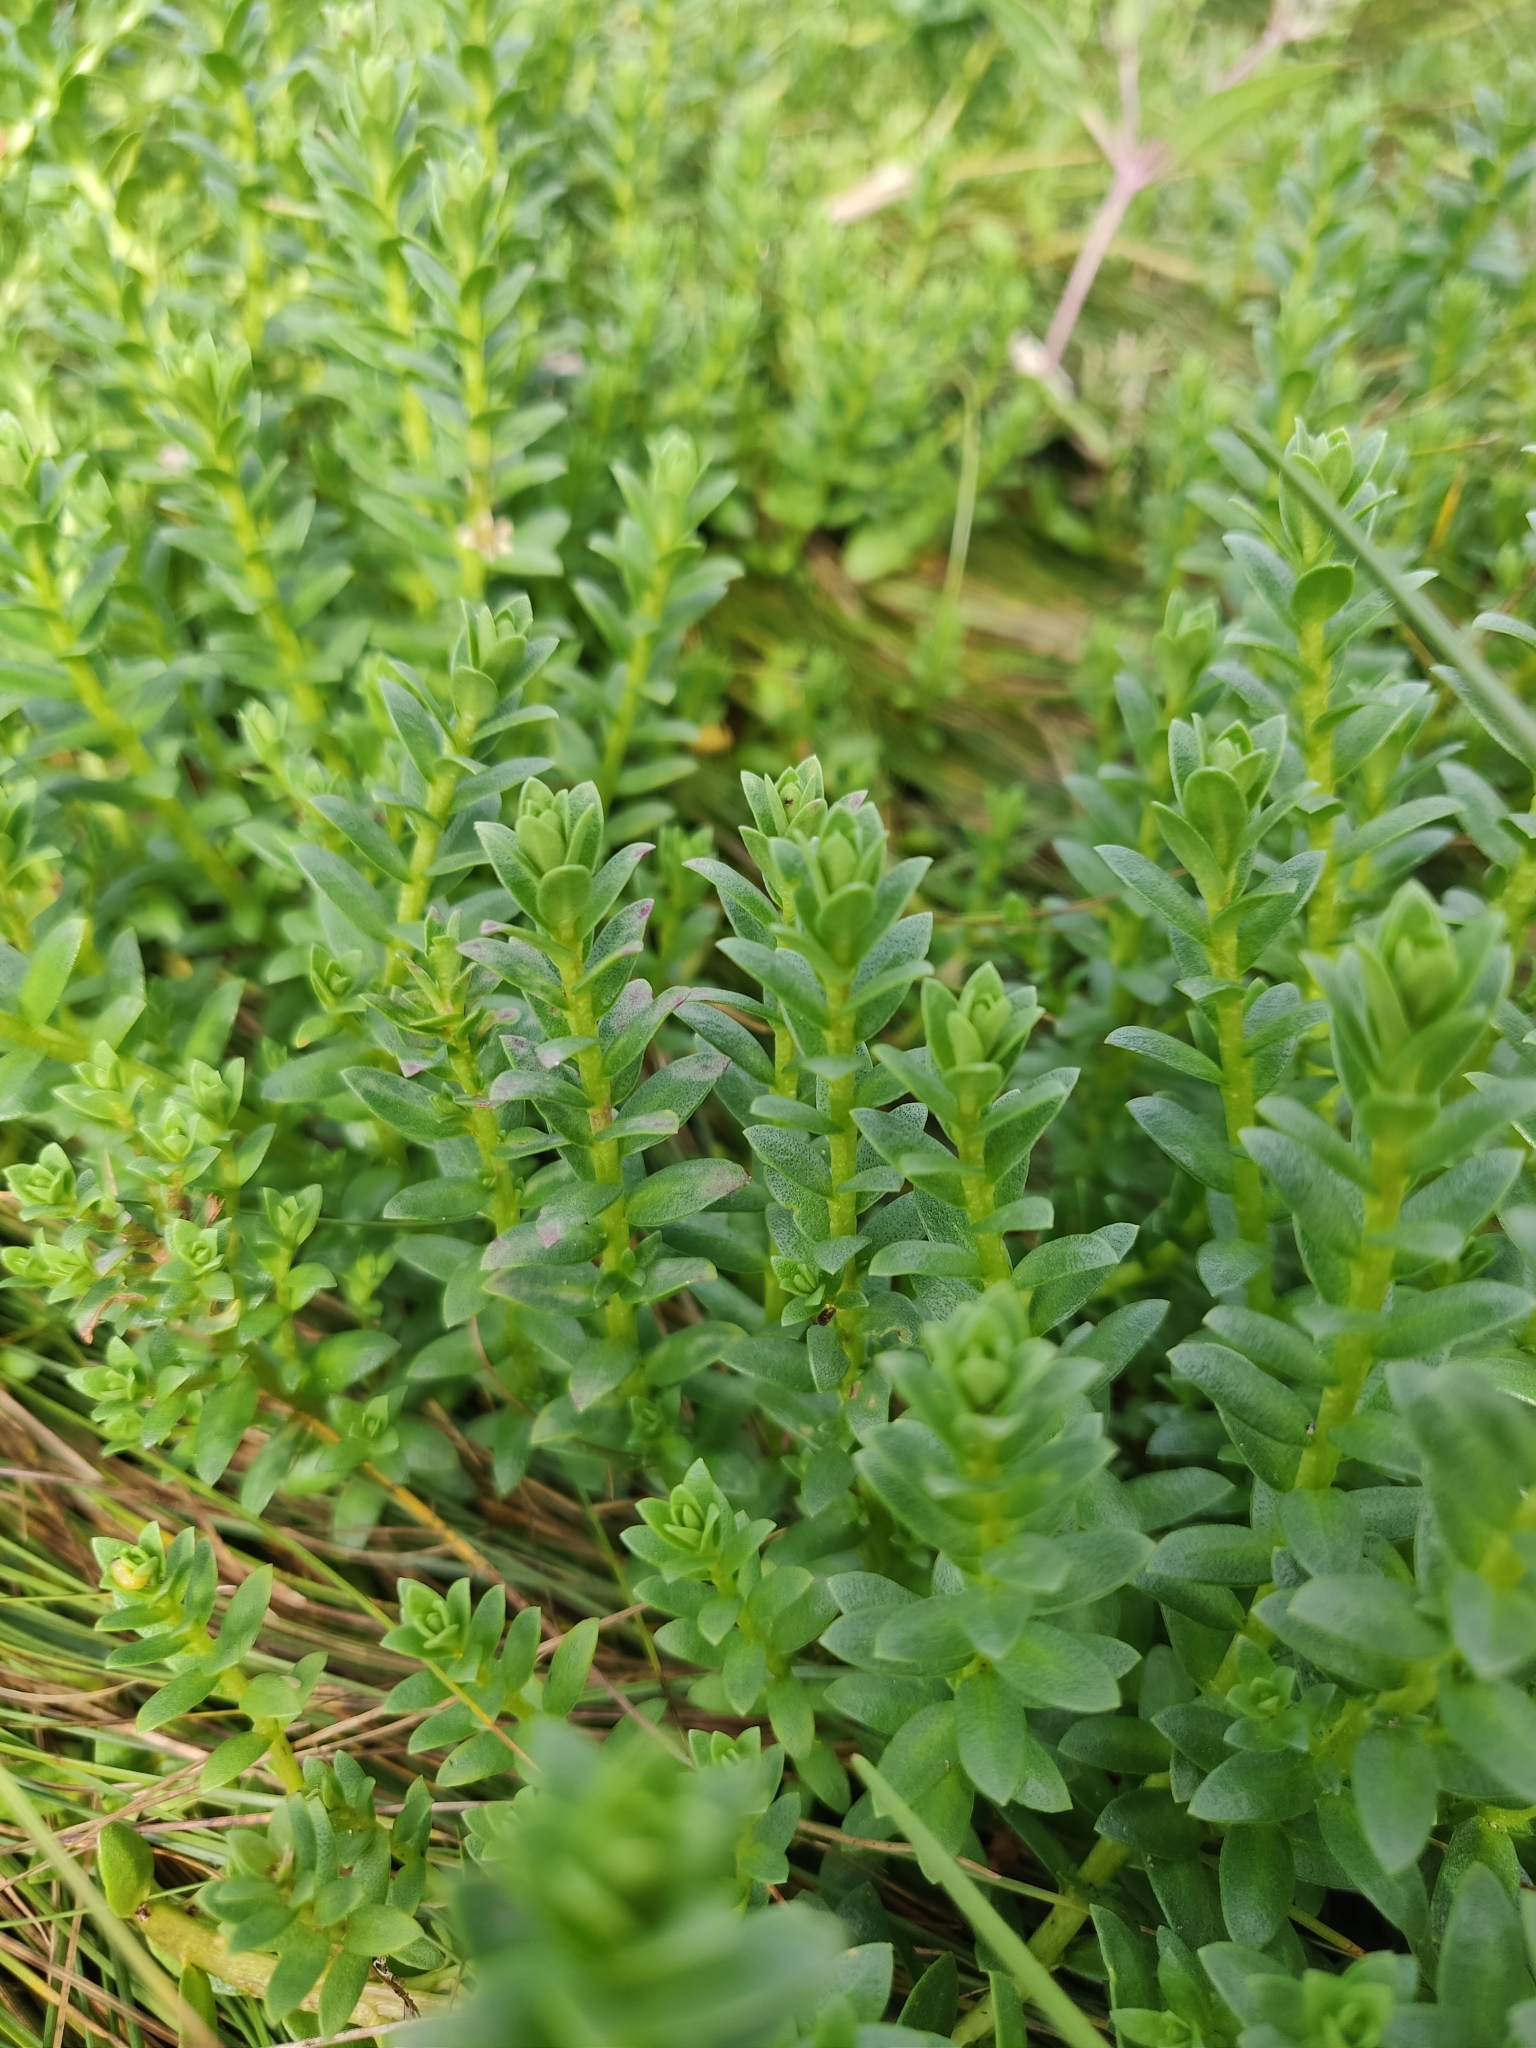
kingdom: Plantae
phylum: Tracheophyta
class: Magnoliopsida
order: Ericales
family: Primulaceae
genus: Lysimachia
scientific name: Lysimachia maritima
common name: Sea milkwort
